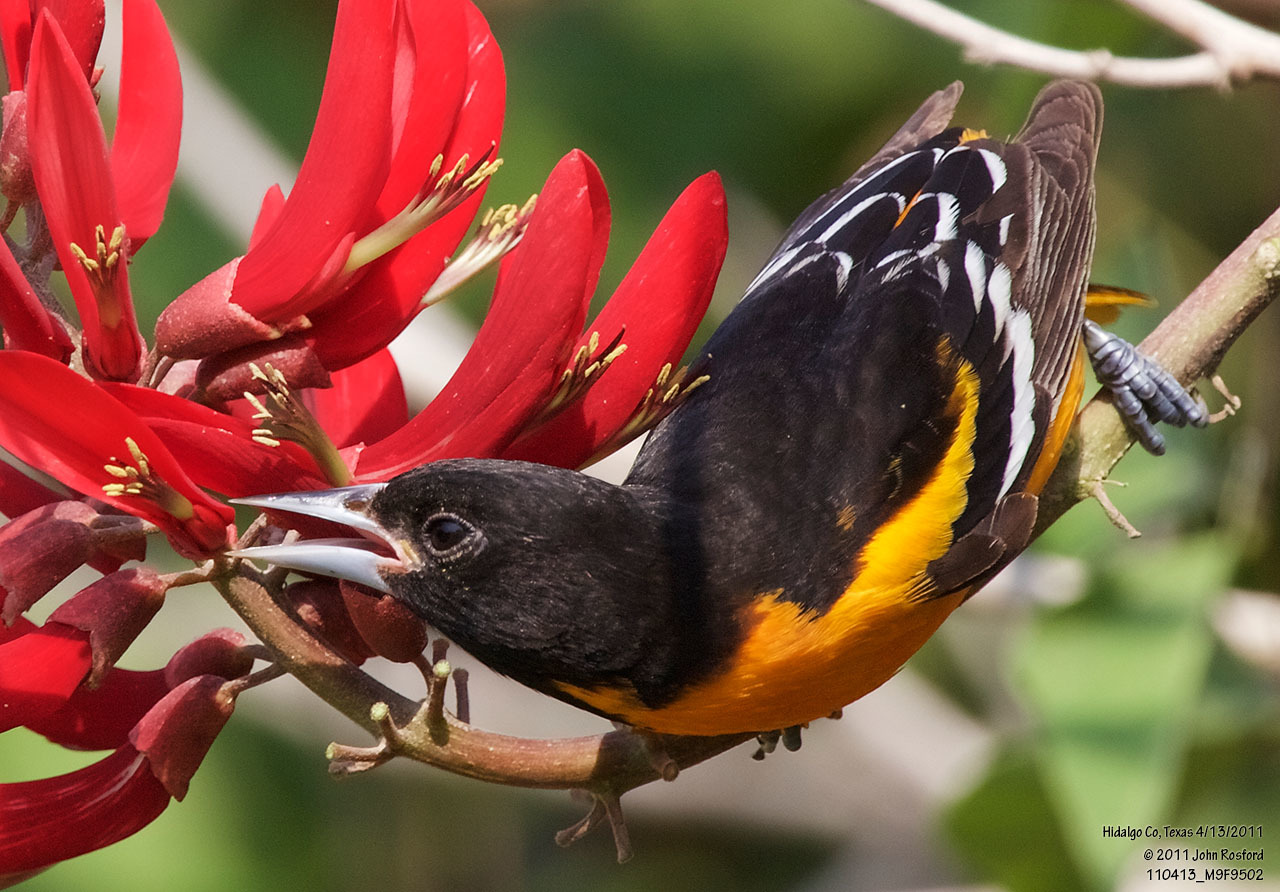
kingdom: Animalia
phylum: Chordata
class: Aves
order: Passeriformes
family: Icteridae
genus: Icterus
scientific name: Icterus galbula
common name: Baltimore oriole
